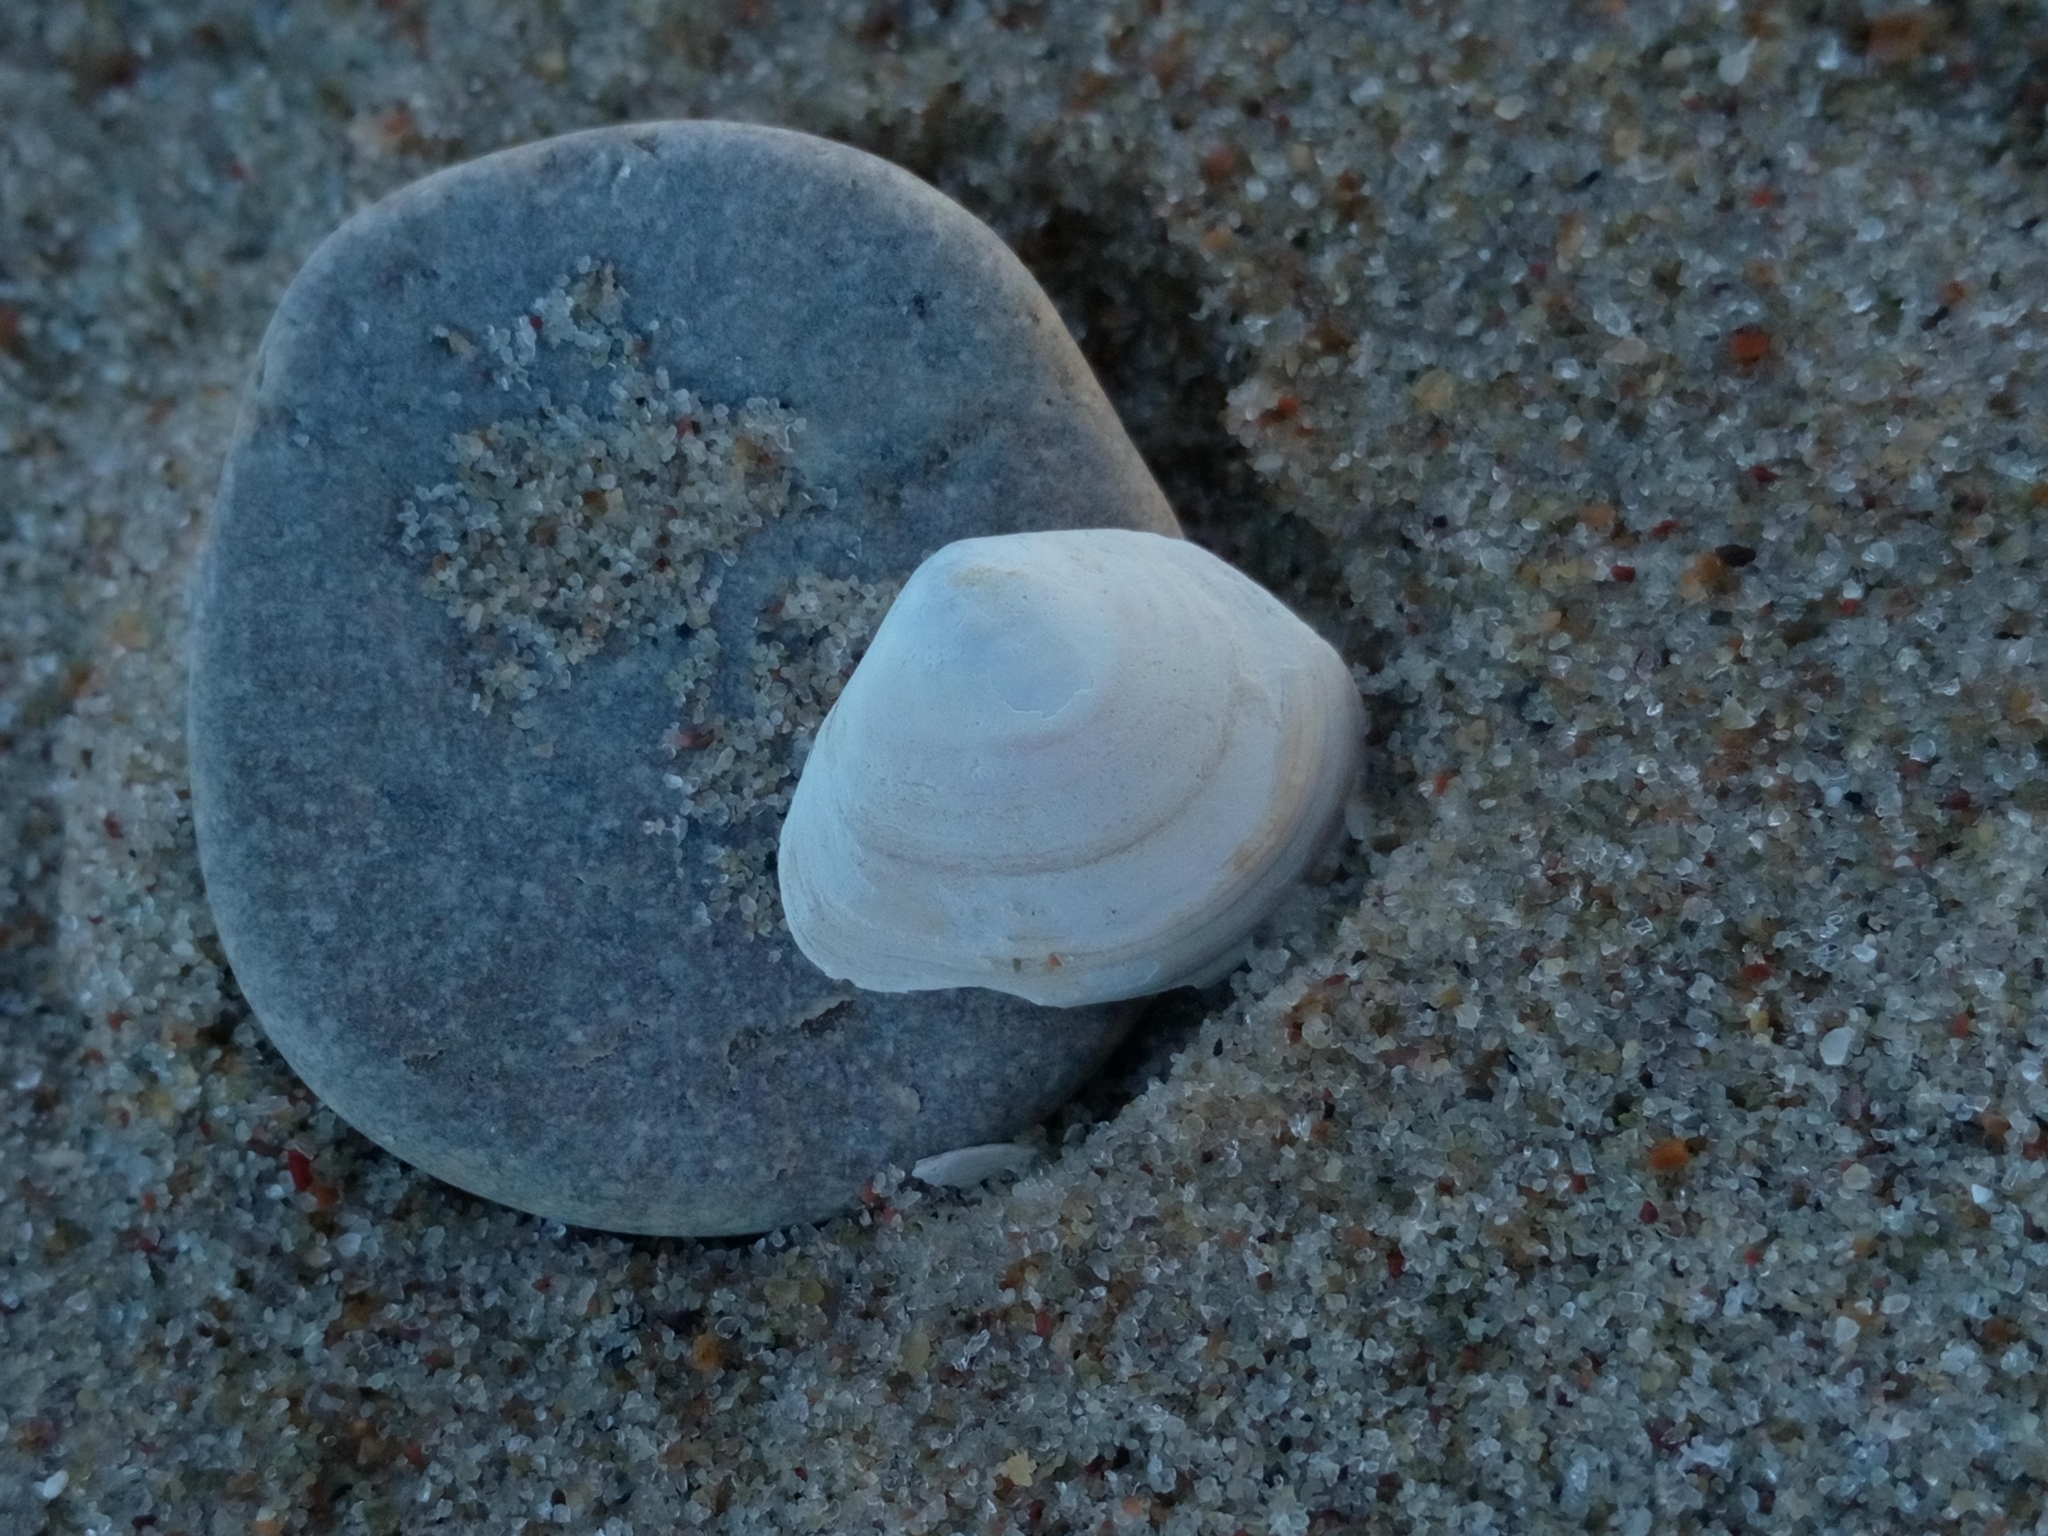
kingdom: Animalia
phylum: Mollusca
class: Bivalvia
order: Cardiida
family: Tellinidae
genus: Macoma
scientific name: Macoma balthica
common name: Baltic tellin
